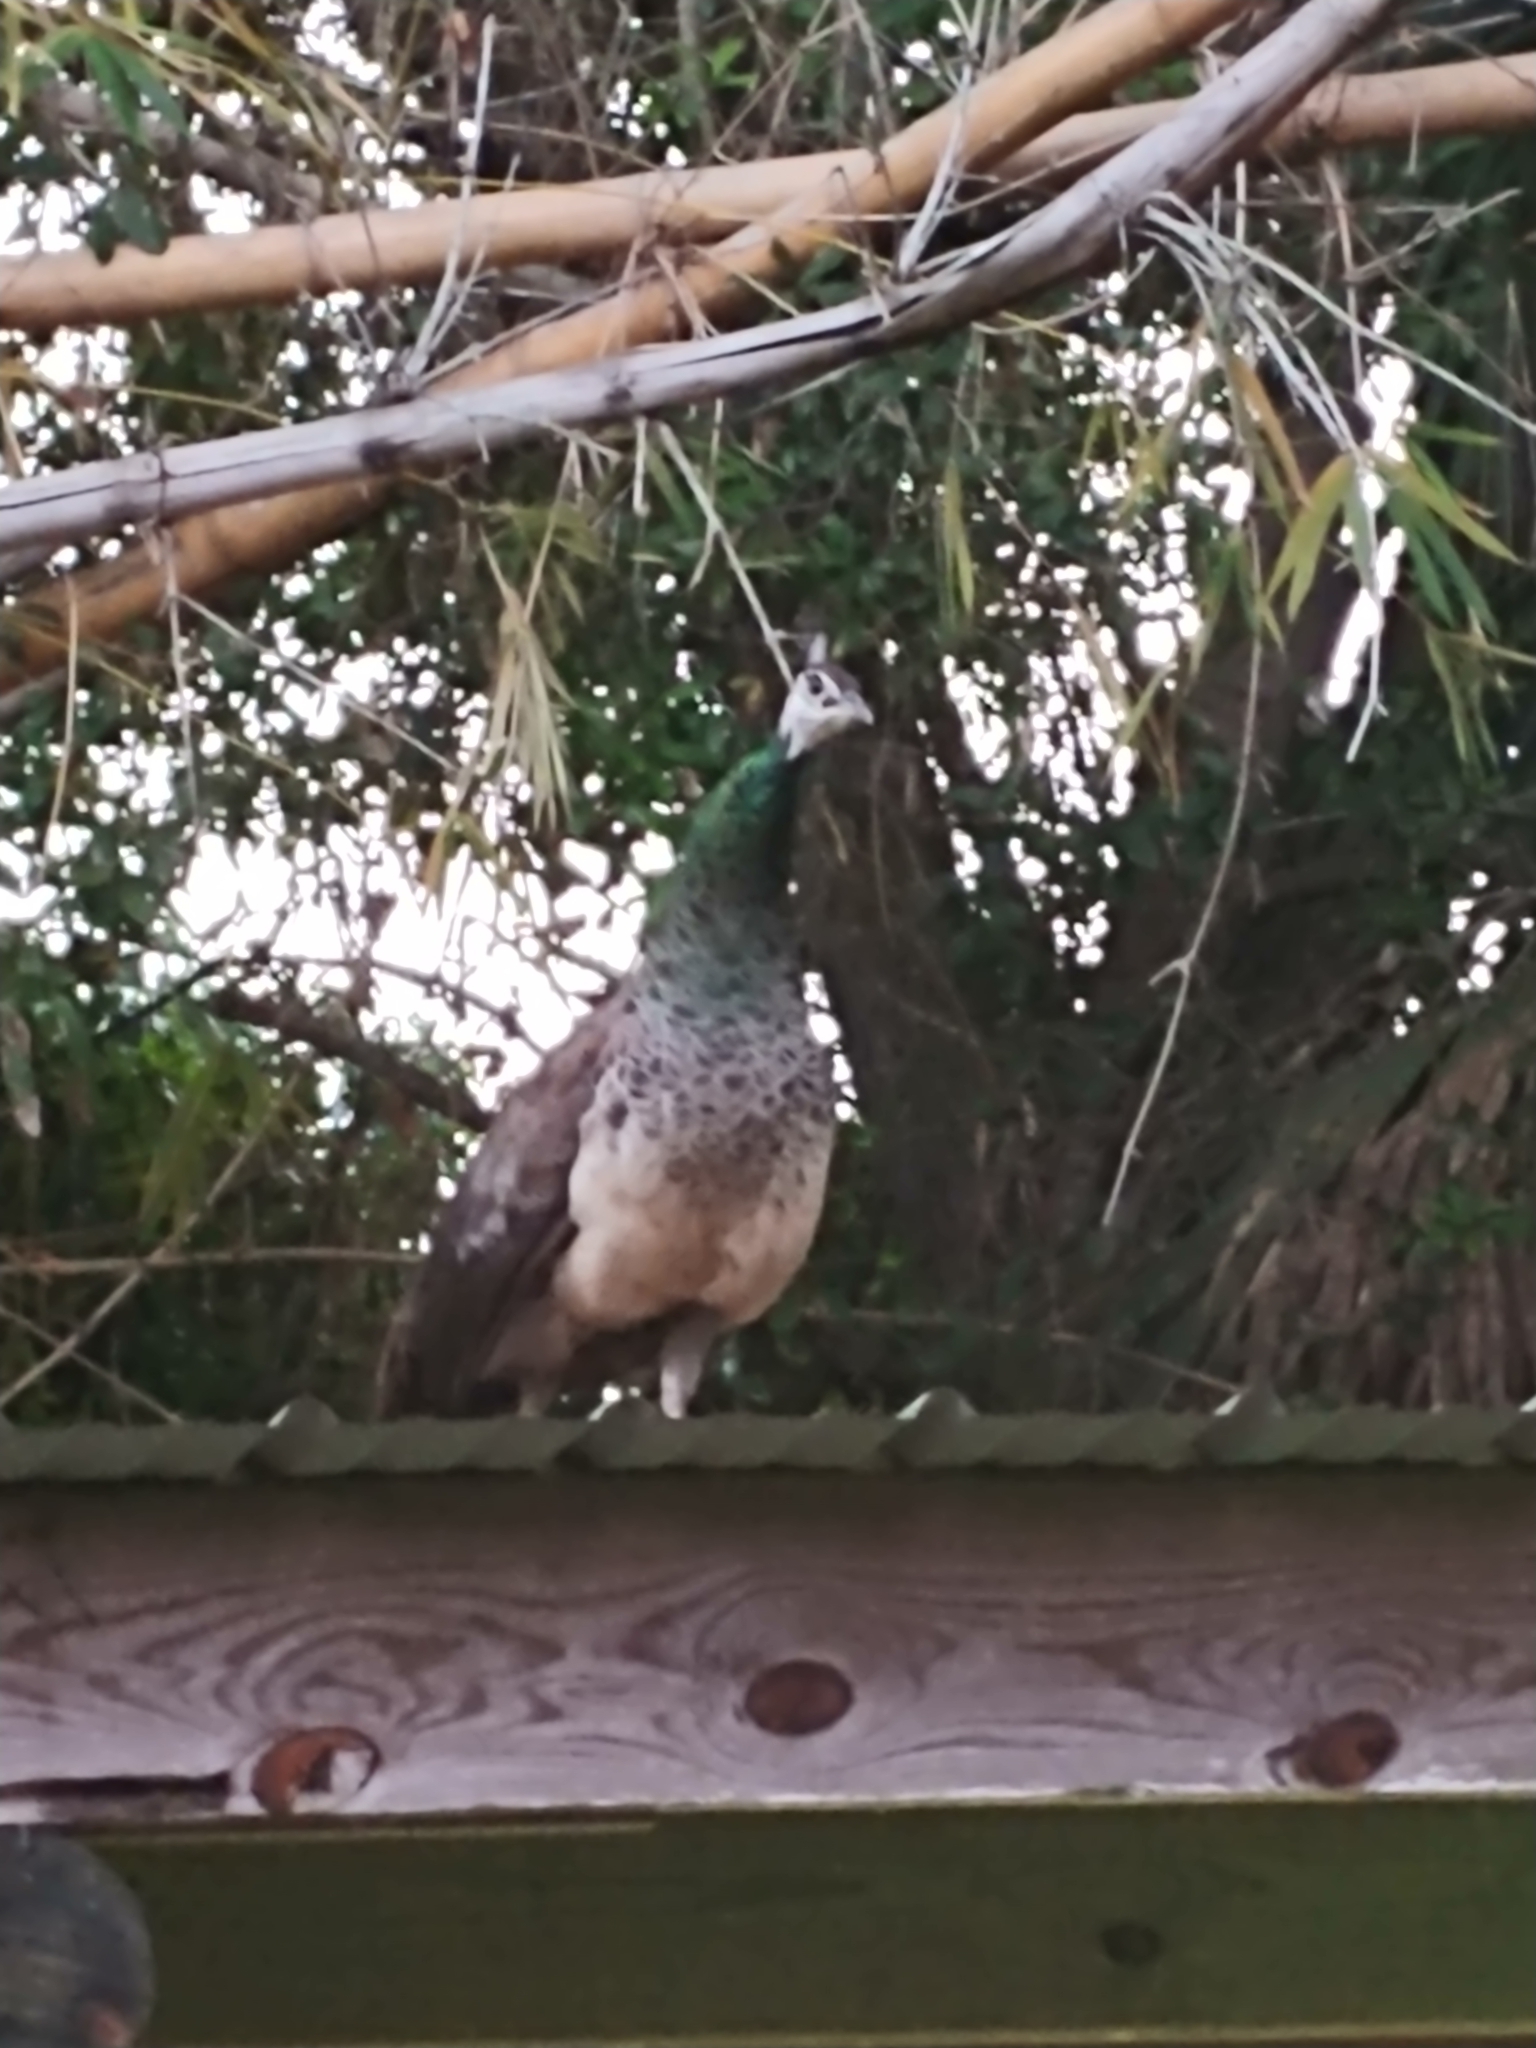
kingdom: Animalia
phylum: Chordata
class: Aves
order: Galliformes
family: Phasianidae
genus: Pavo
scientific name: Pavo cristatus
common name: Indian peafowl
